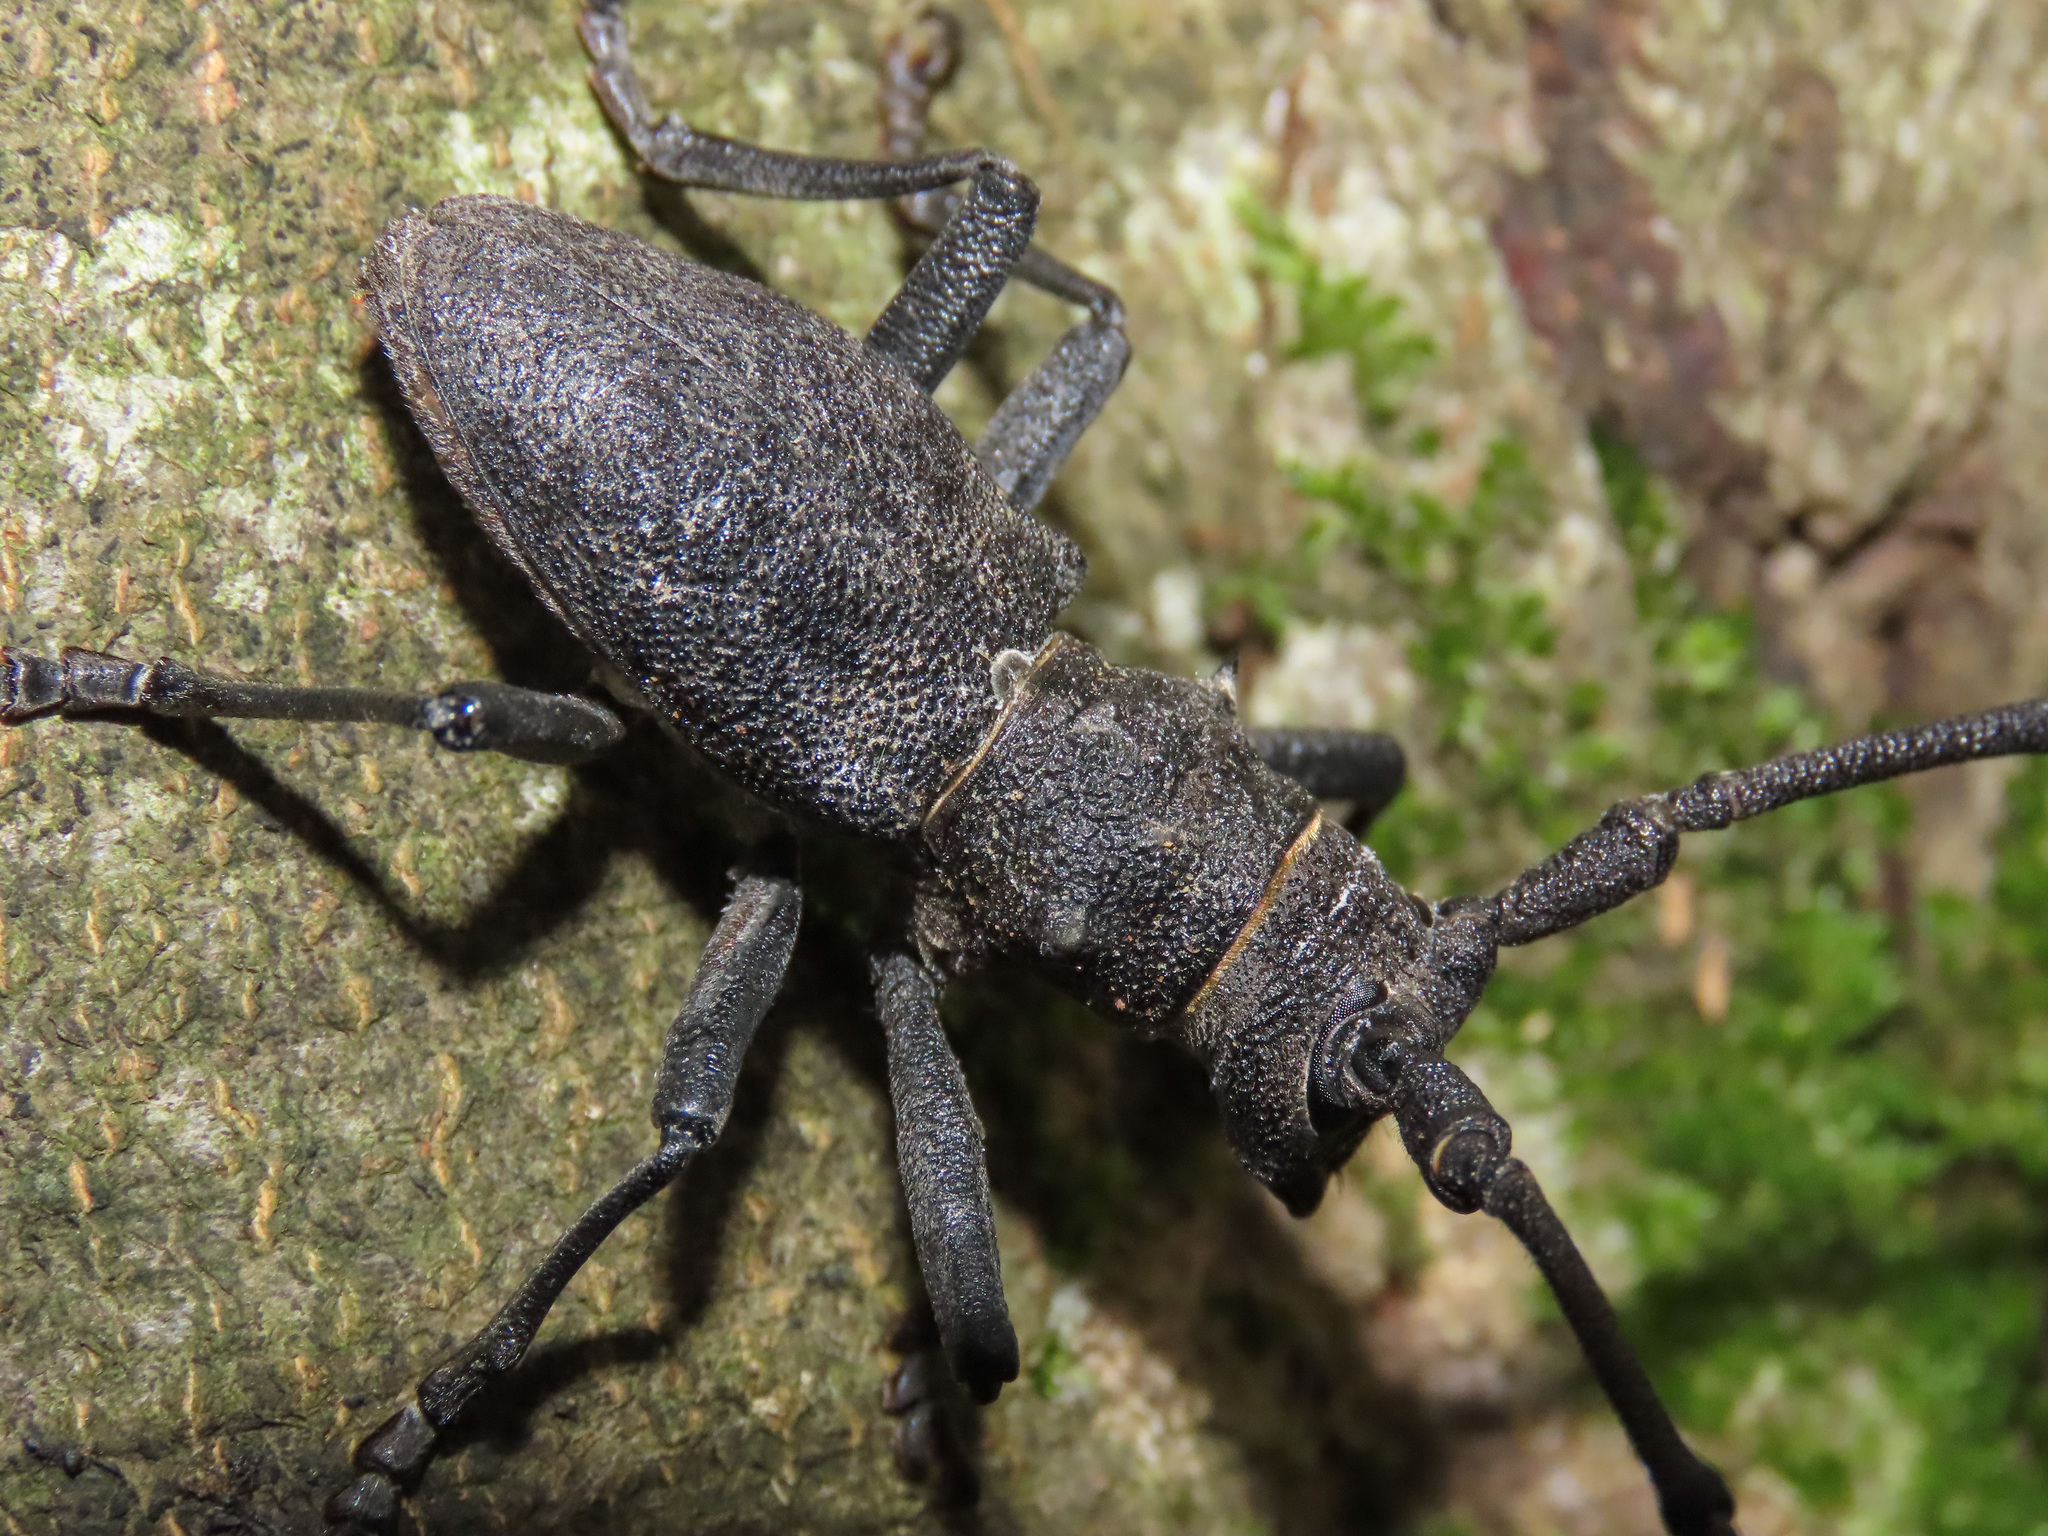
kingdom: Animalia
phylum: Arthropoda
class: Insecta
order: Coleoptera
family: Cerambycidae
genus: Morimus
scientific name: Morimus asper
